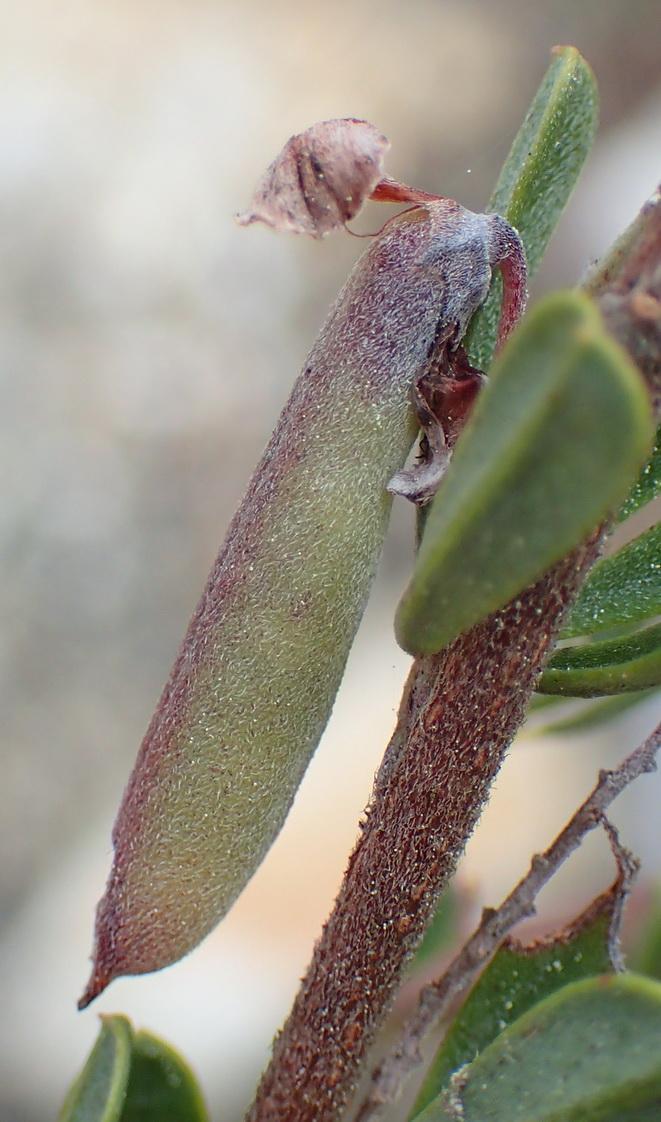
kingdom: Plantae
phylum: Tracheophyta
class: Magnoliopsida
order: Fabales
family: Fabaceae
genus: Indigofera
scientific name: Indigofera flabellata
